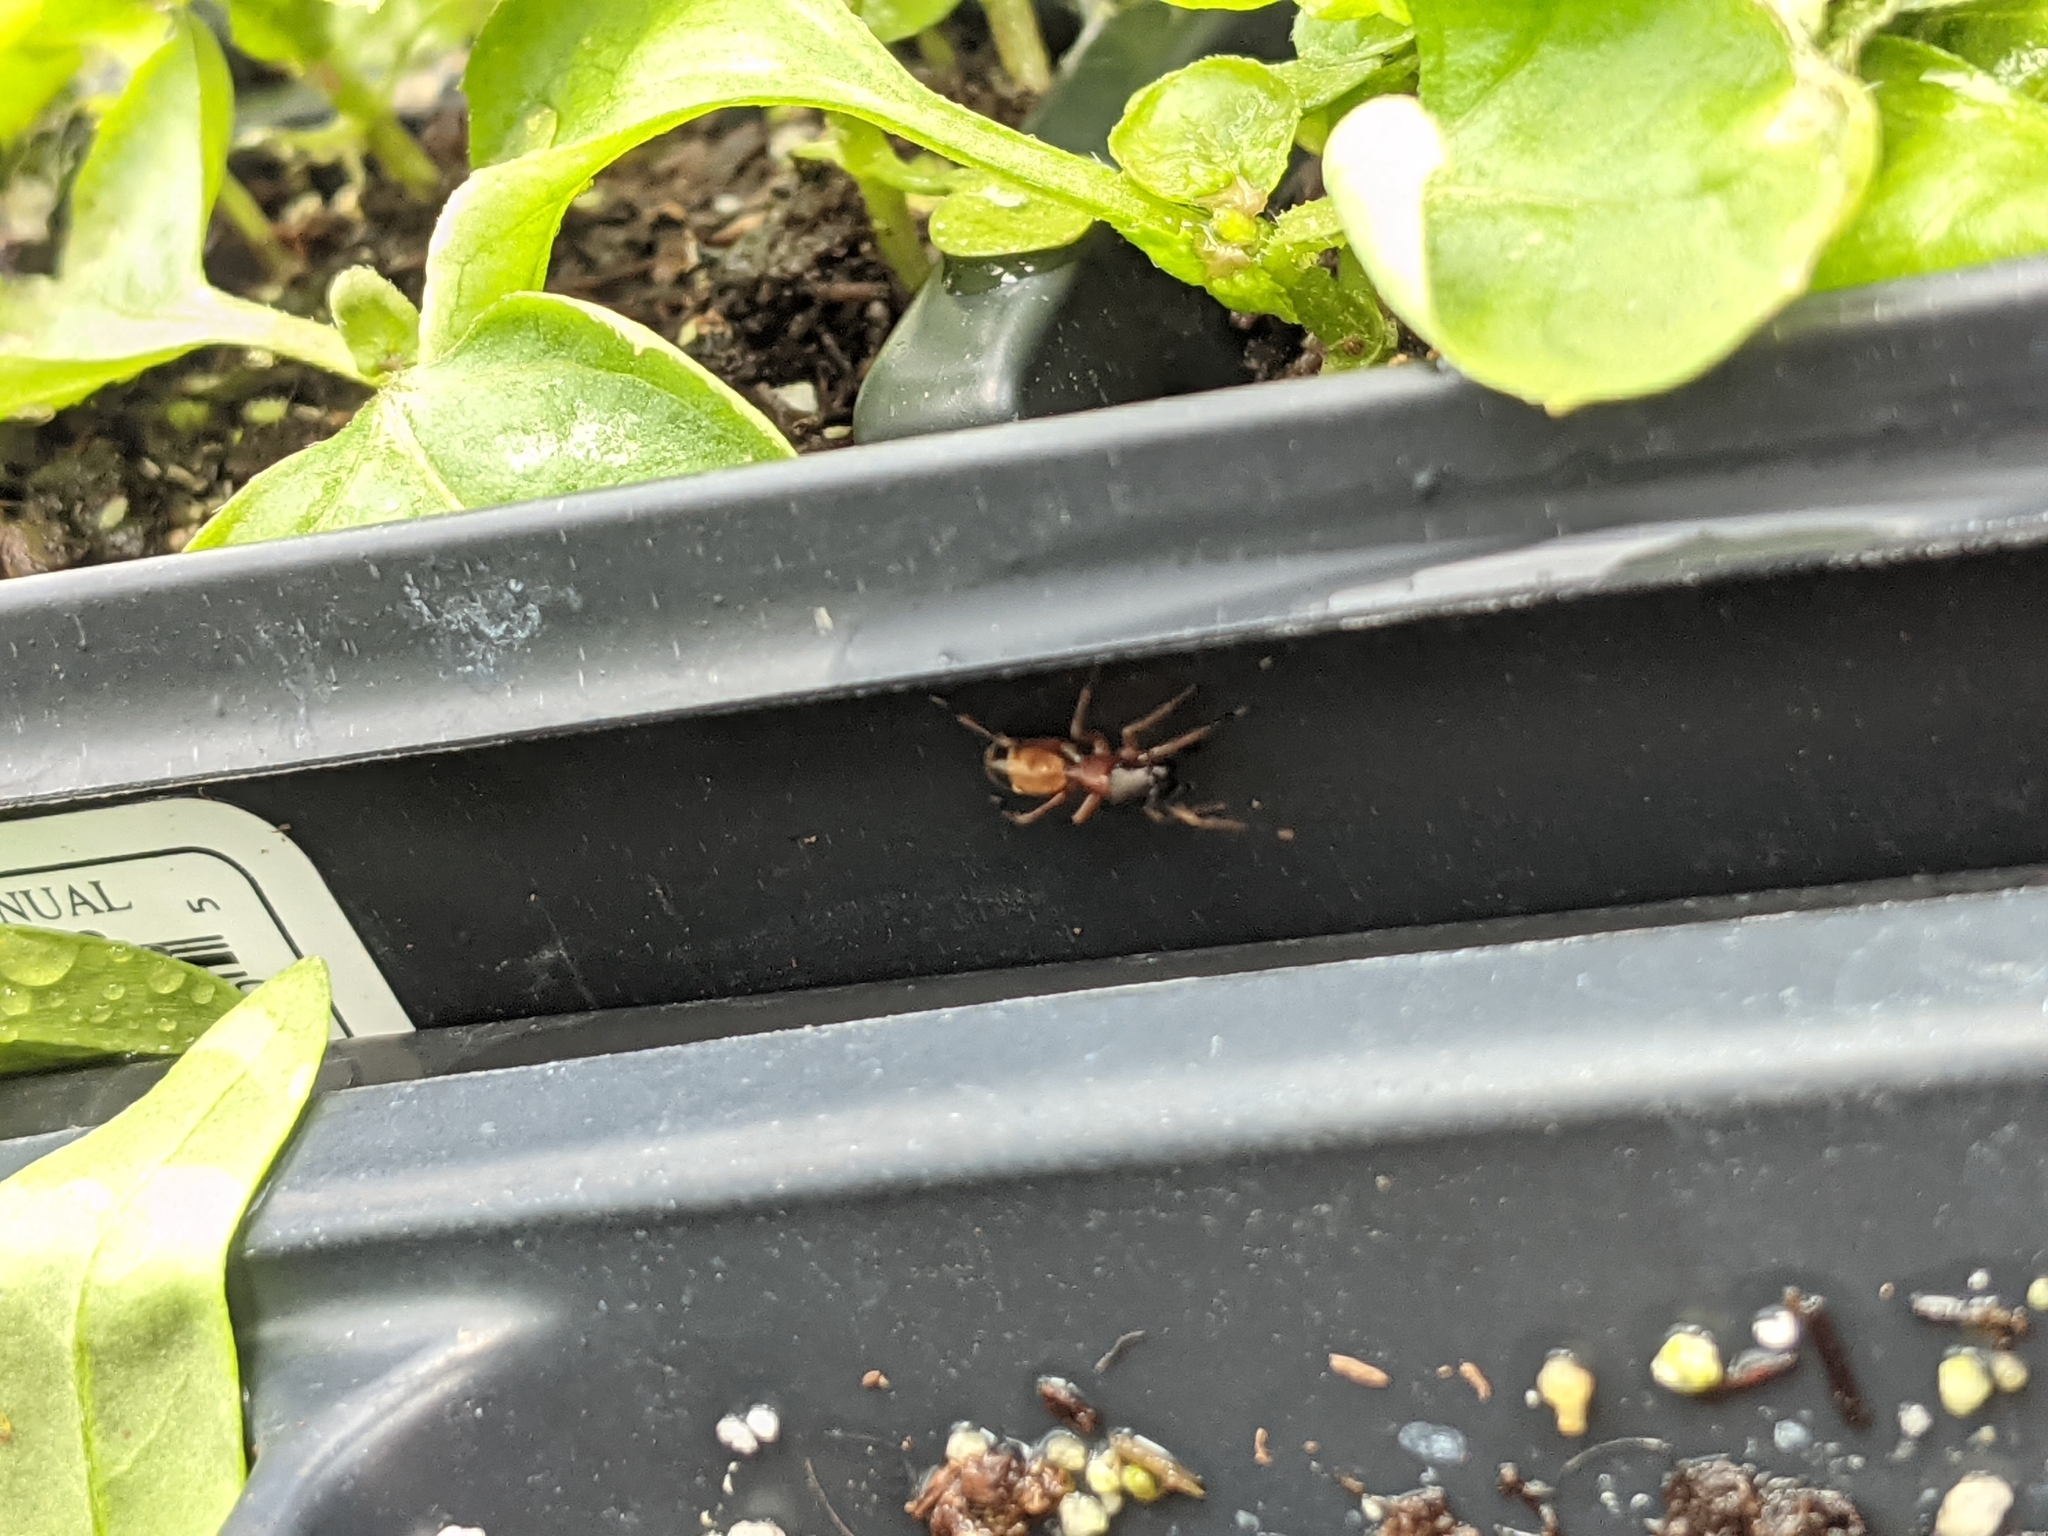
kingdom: Animalia
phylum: Arthropoda
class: Arachnida
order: Araneae
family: Salticidae
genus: Myrmarachne
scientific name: Myrmarachne formicaria
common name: Ant mimic jumping spider
